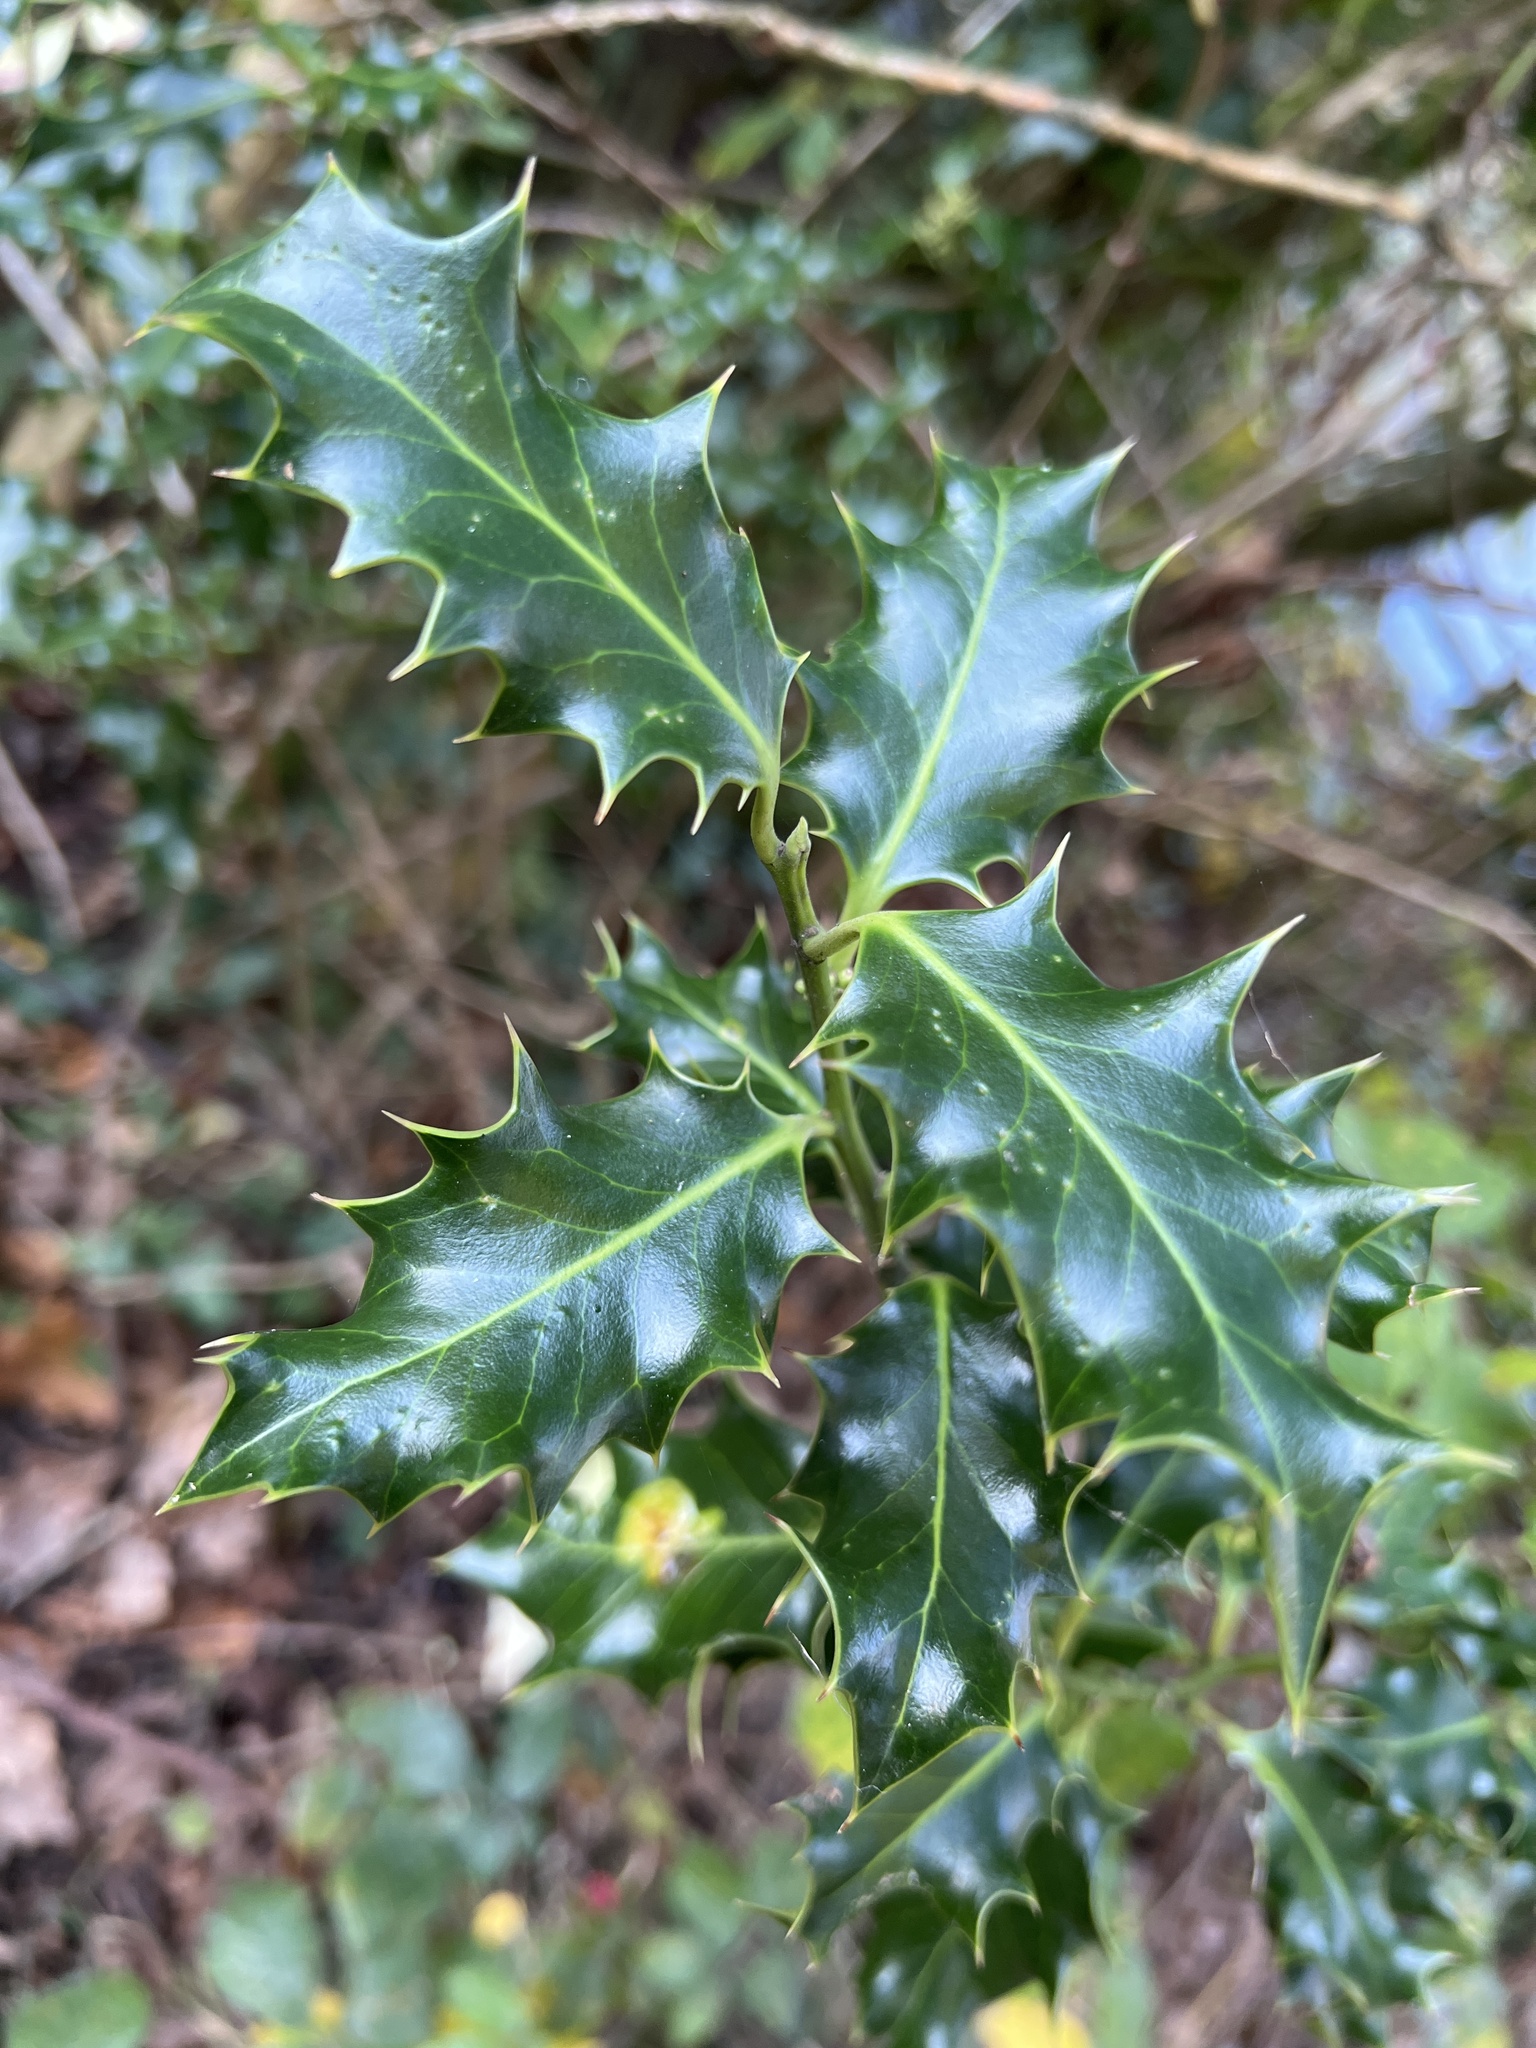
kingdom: Plantae
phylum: Tracheophyta
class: Magnoliopsida
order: Aquifoliales
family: Aquifoliaceae
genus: Ilex
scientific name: Ilex aquifolium
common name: English holly
